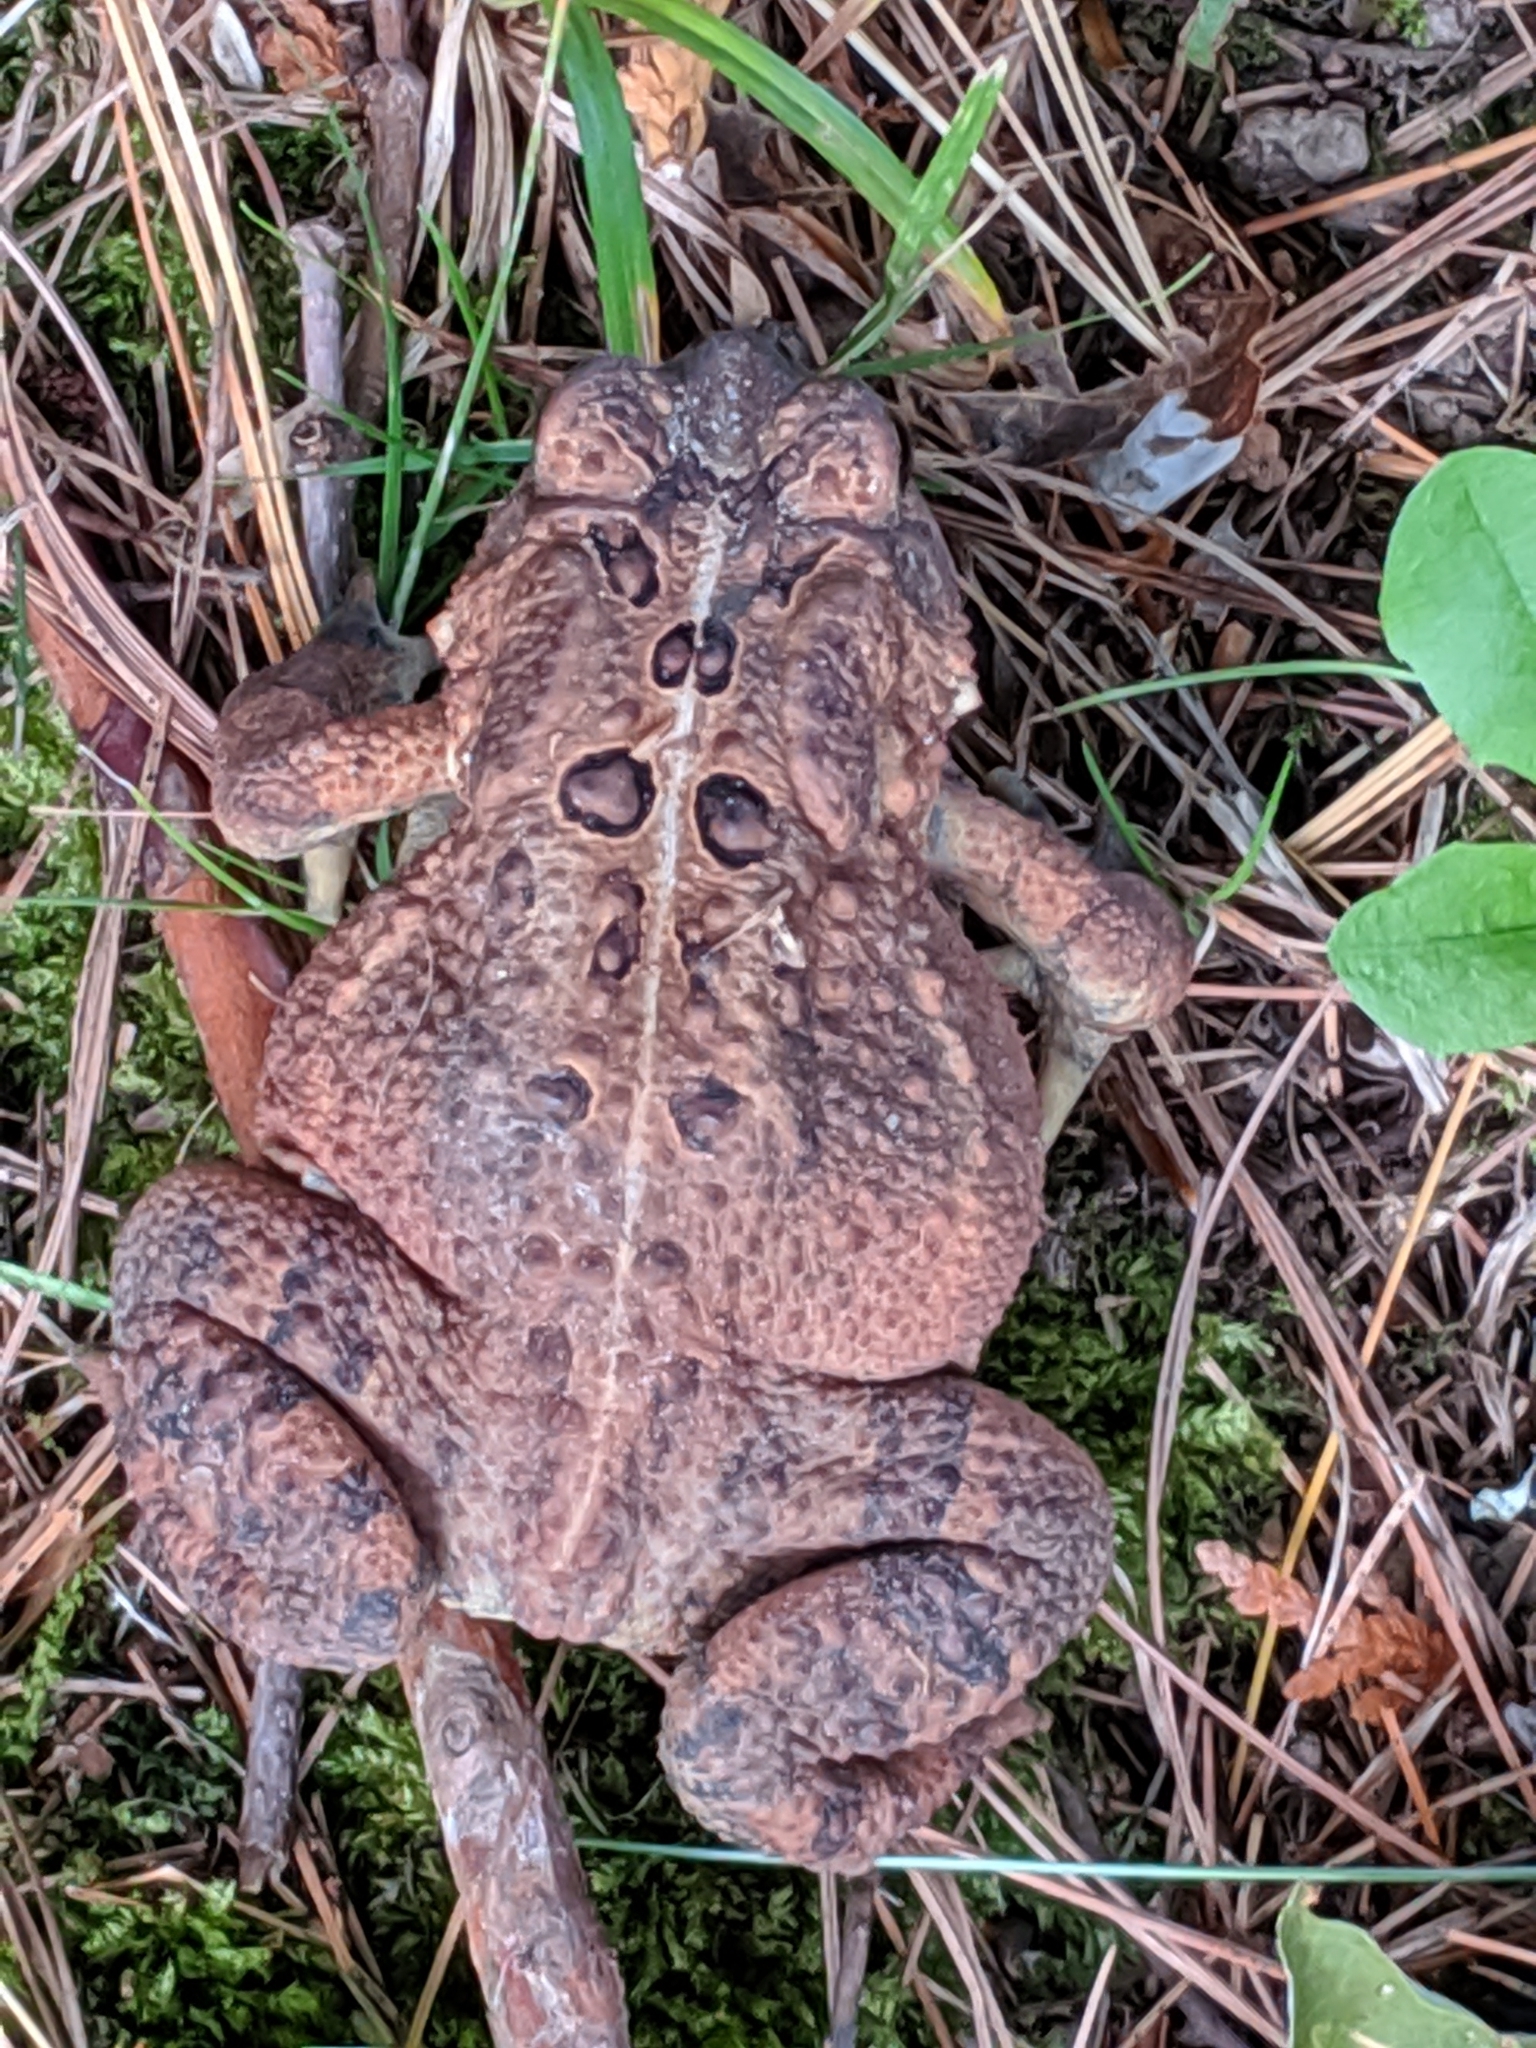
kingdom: Animalia
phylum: Chordata
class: Amphibia
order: Anura
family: Bufonidae
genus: Anaxyrus
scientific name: Anaxyrus americanus
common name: American toad
